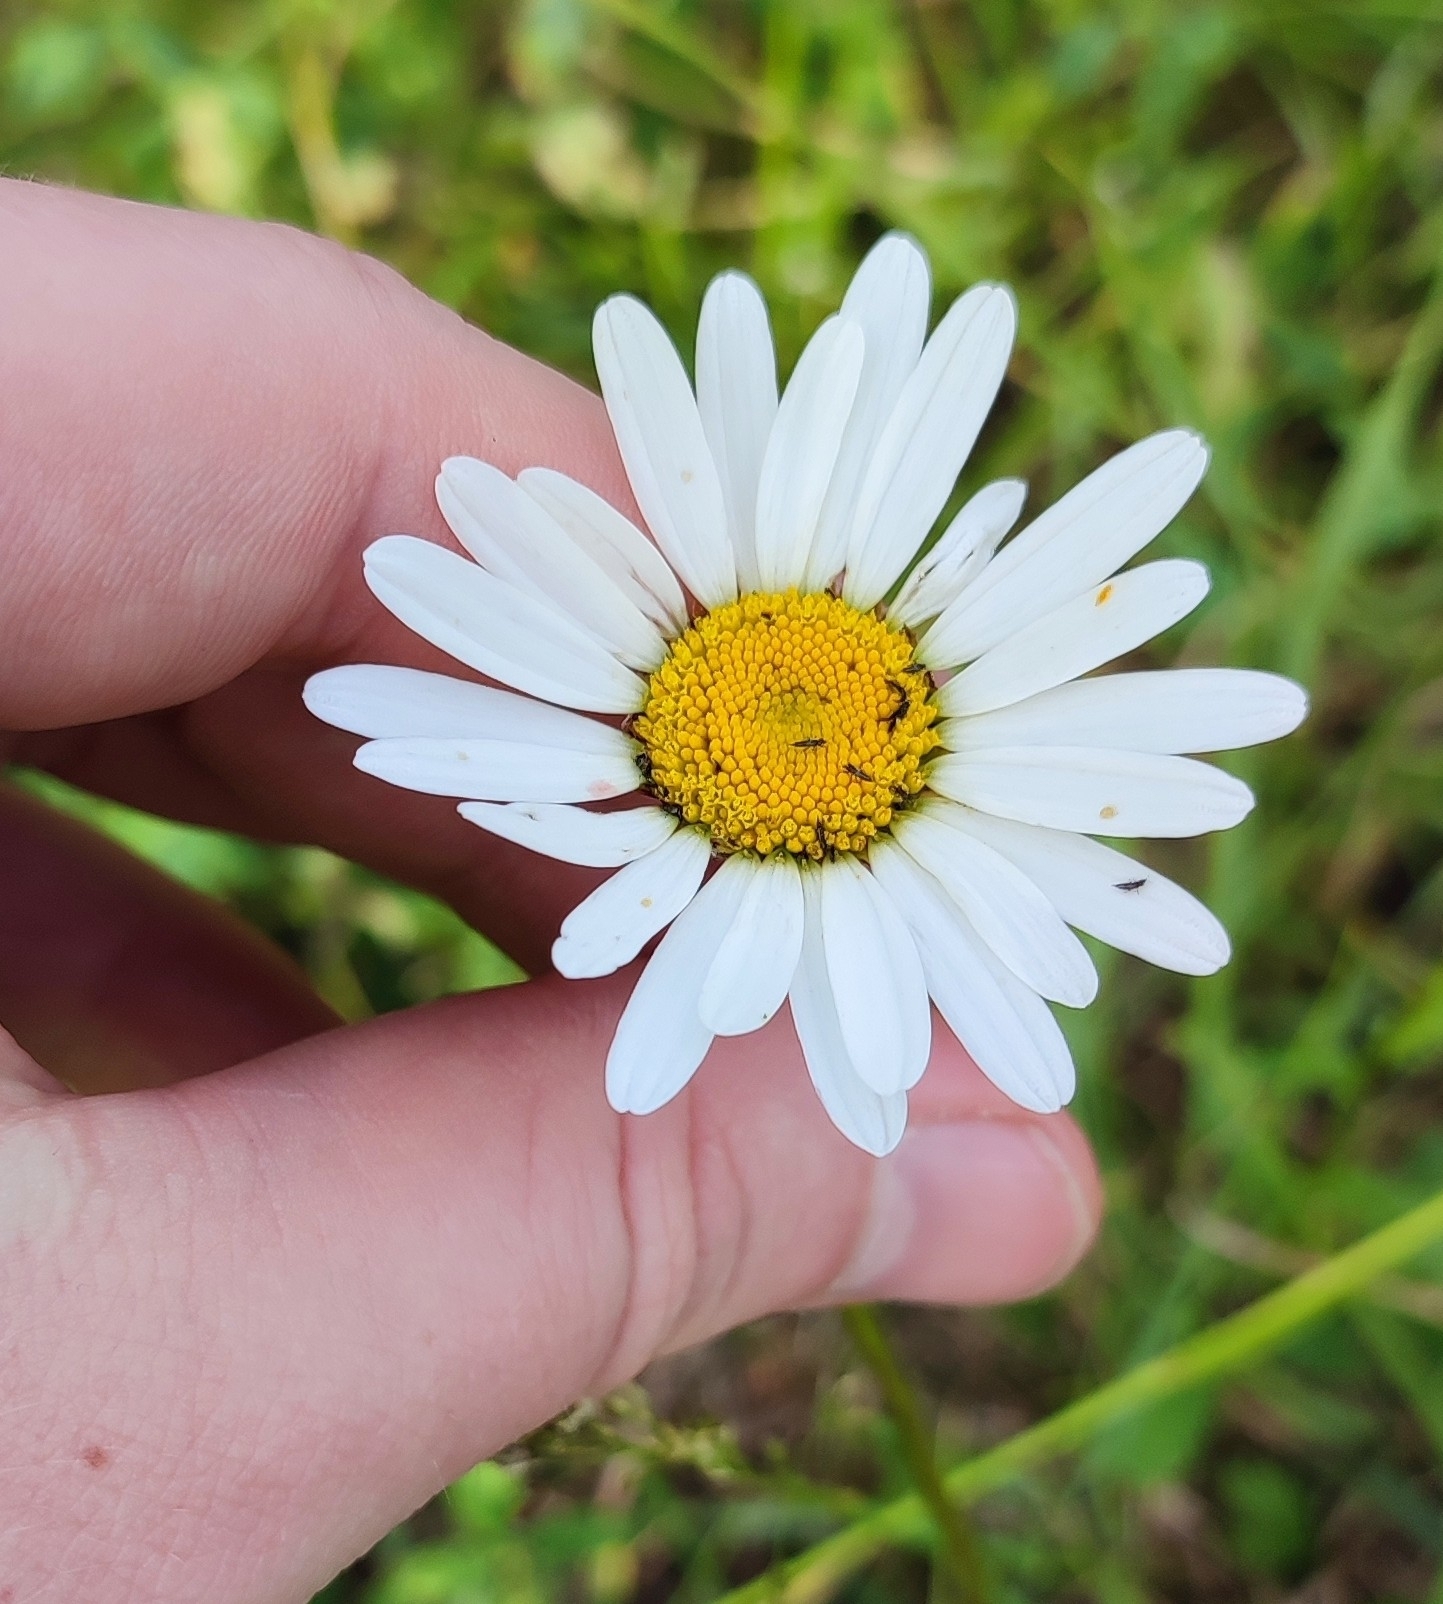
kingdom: Plantae
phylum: Tracheophyta
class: Magnoliopsida
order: Asterales
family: Asteraceae
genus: Leucanthemum
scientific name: Leucanthemum ircutianum
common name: Daisy
